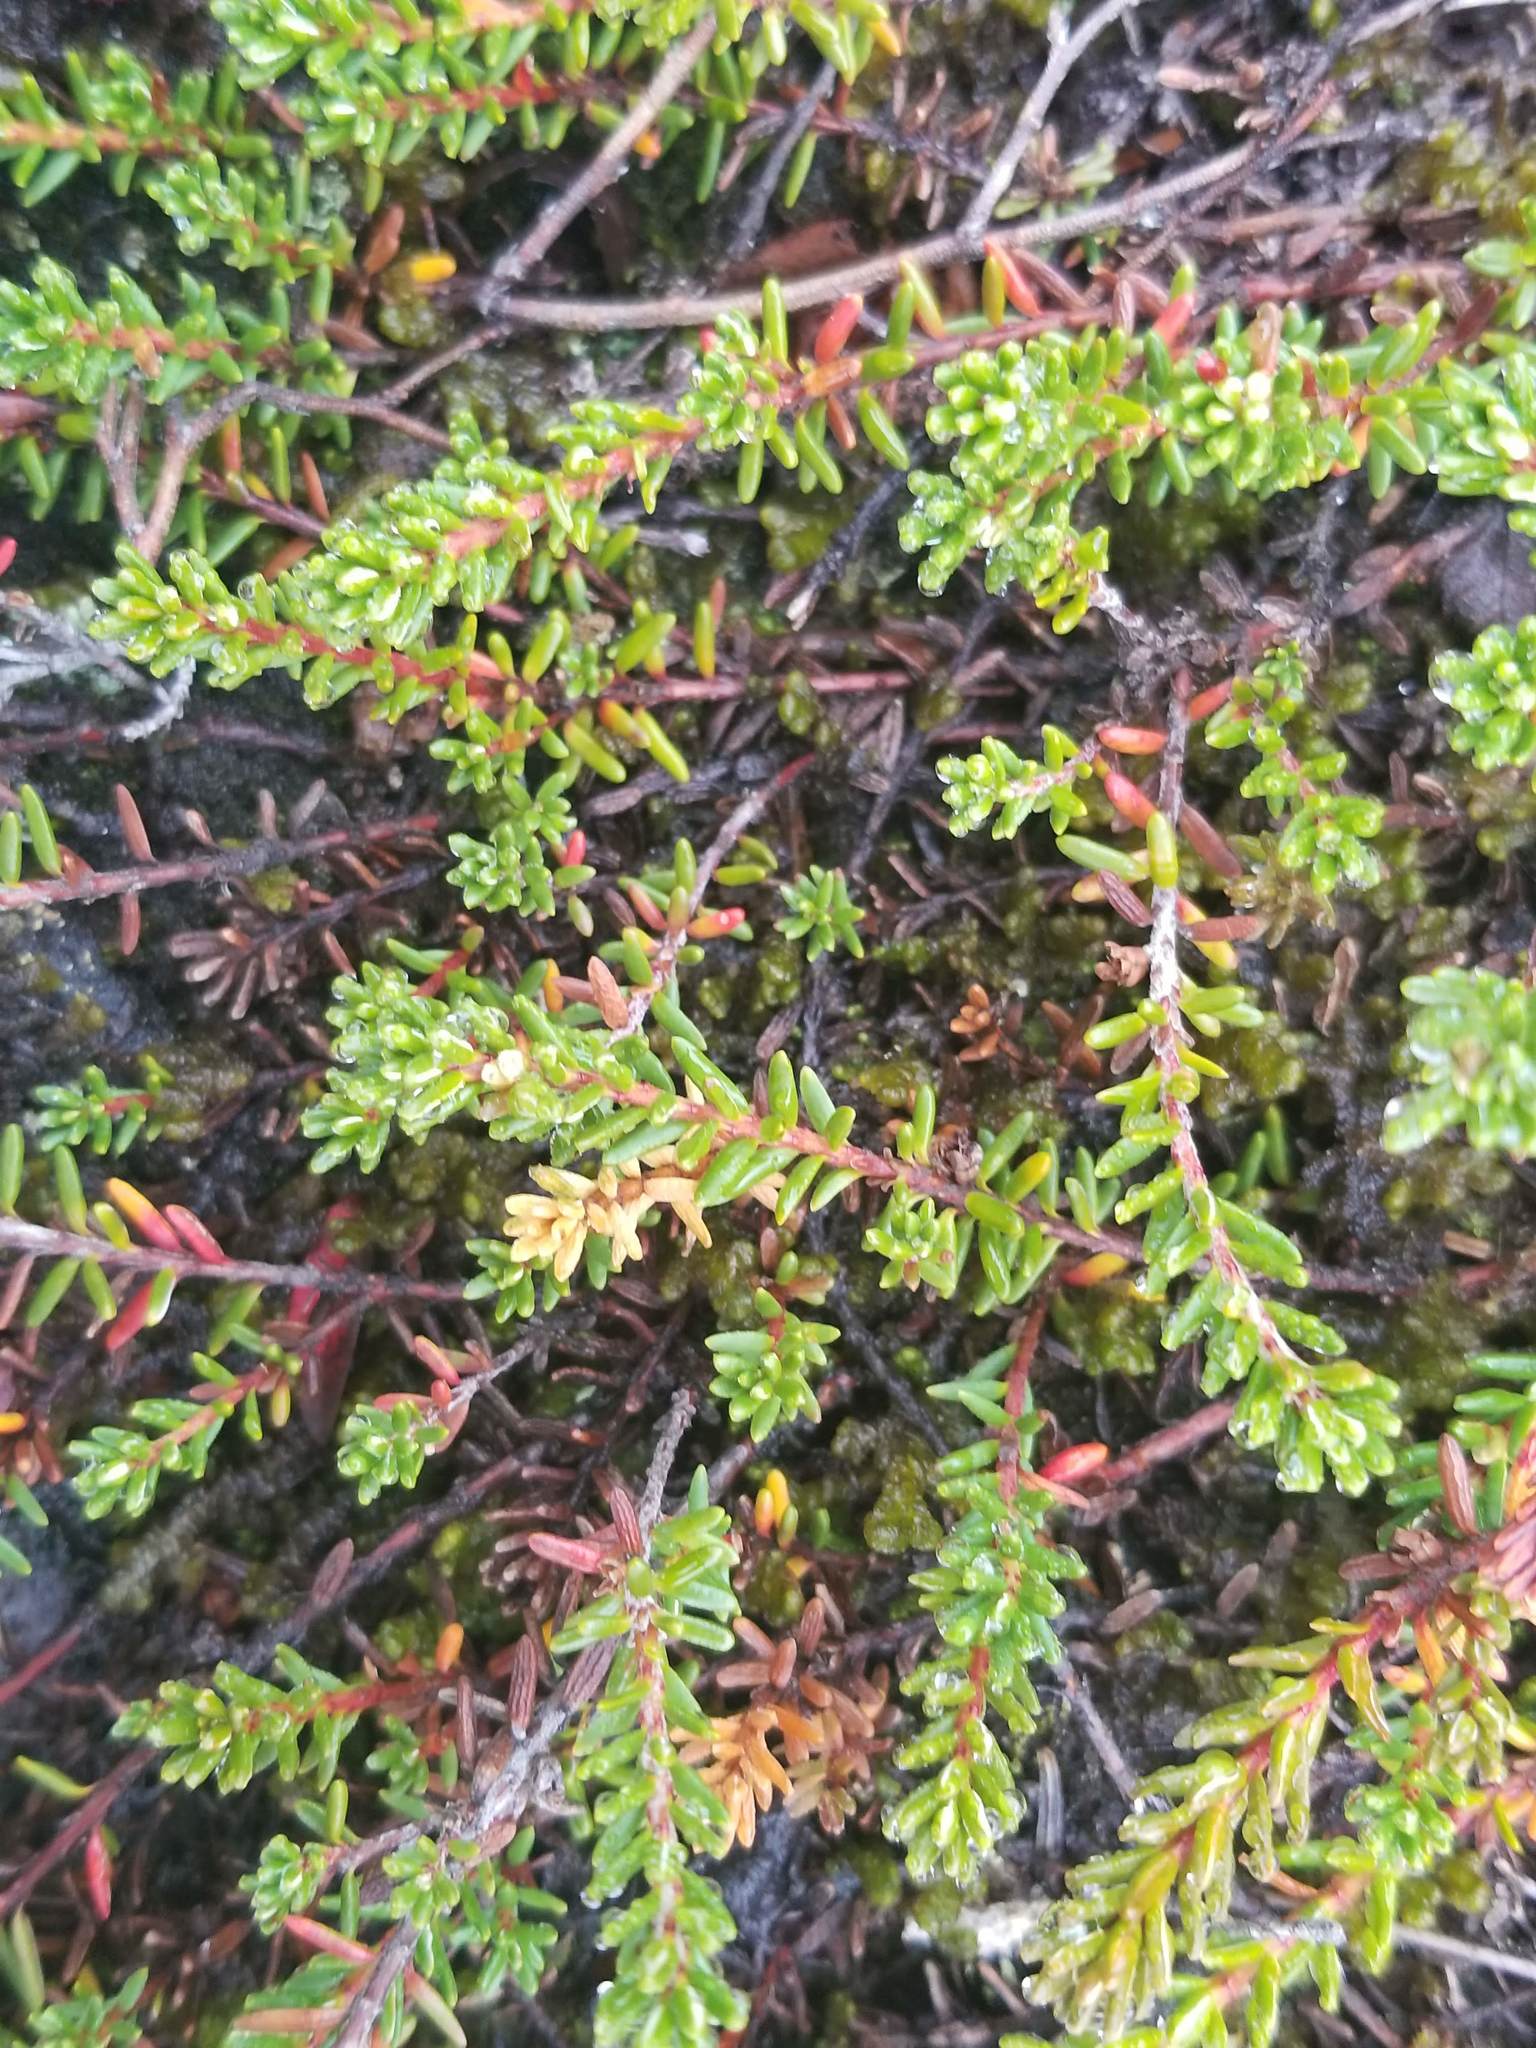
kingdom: Plantae
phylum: Tracheophyta
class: Magnoliopsida
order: Ericales
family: Ericaceae
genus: Empetrum
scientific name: Empetrum nigrum
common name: Black crowberry
